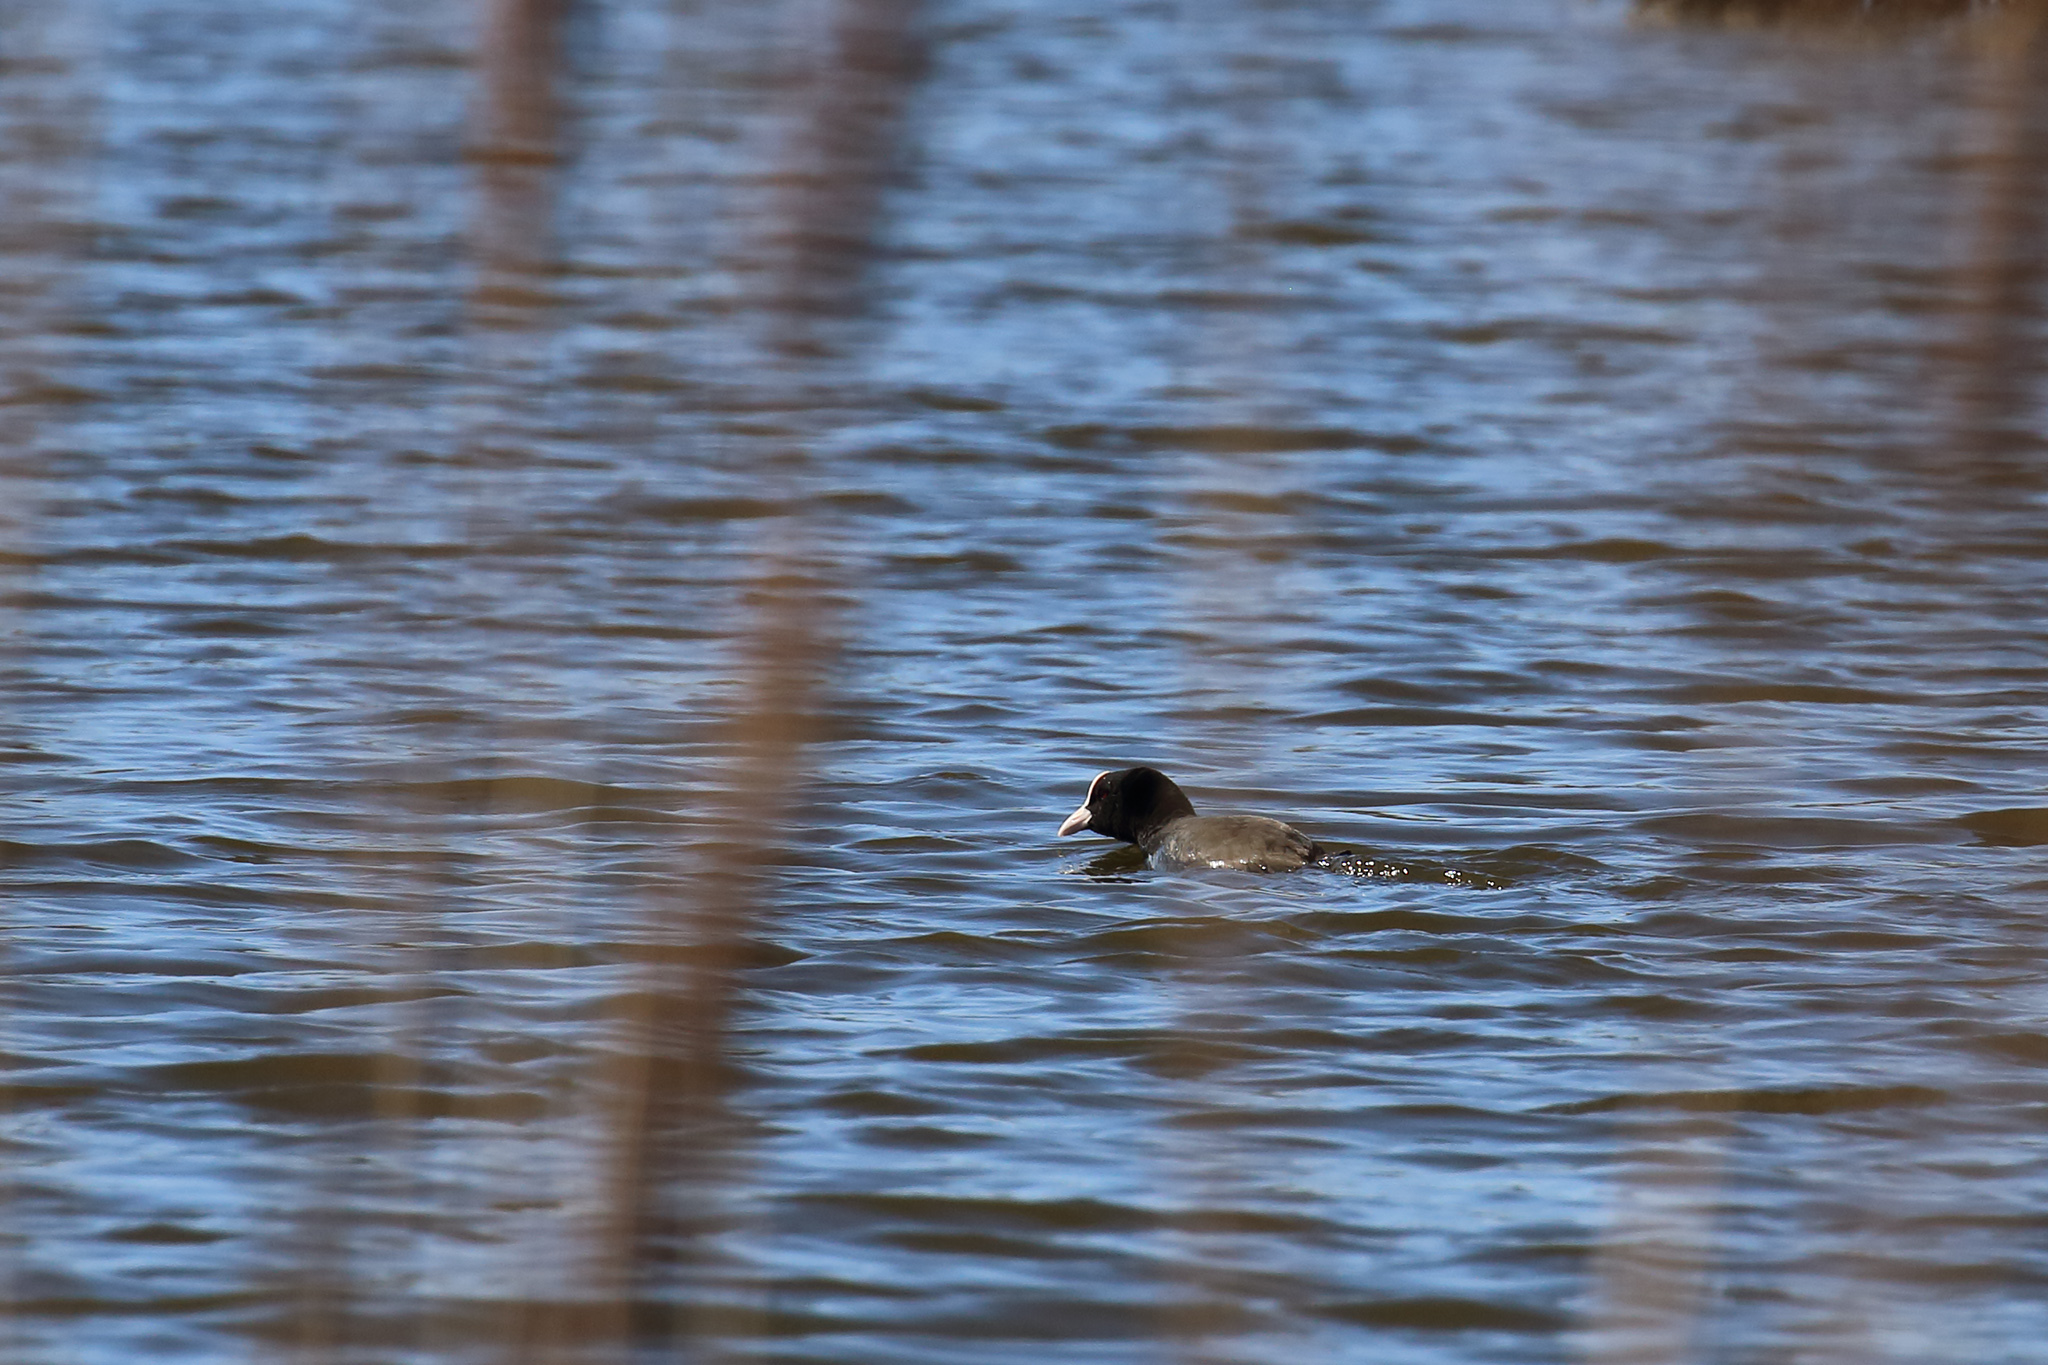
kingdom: Animalia
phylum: Chordata
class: Aves
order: Gruiformes
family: Rallidae
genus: Fulica
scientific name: Fulica atra
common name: Eurasian coot
